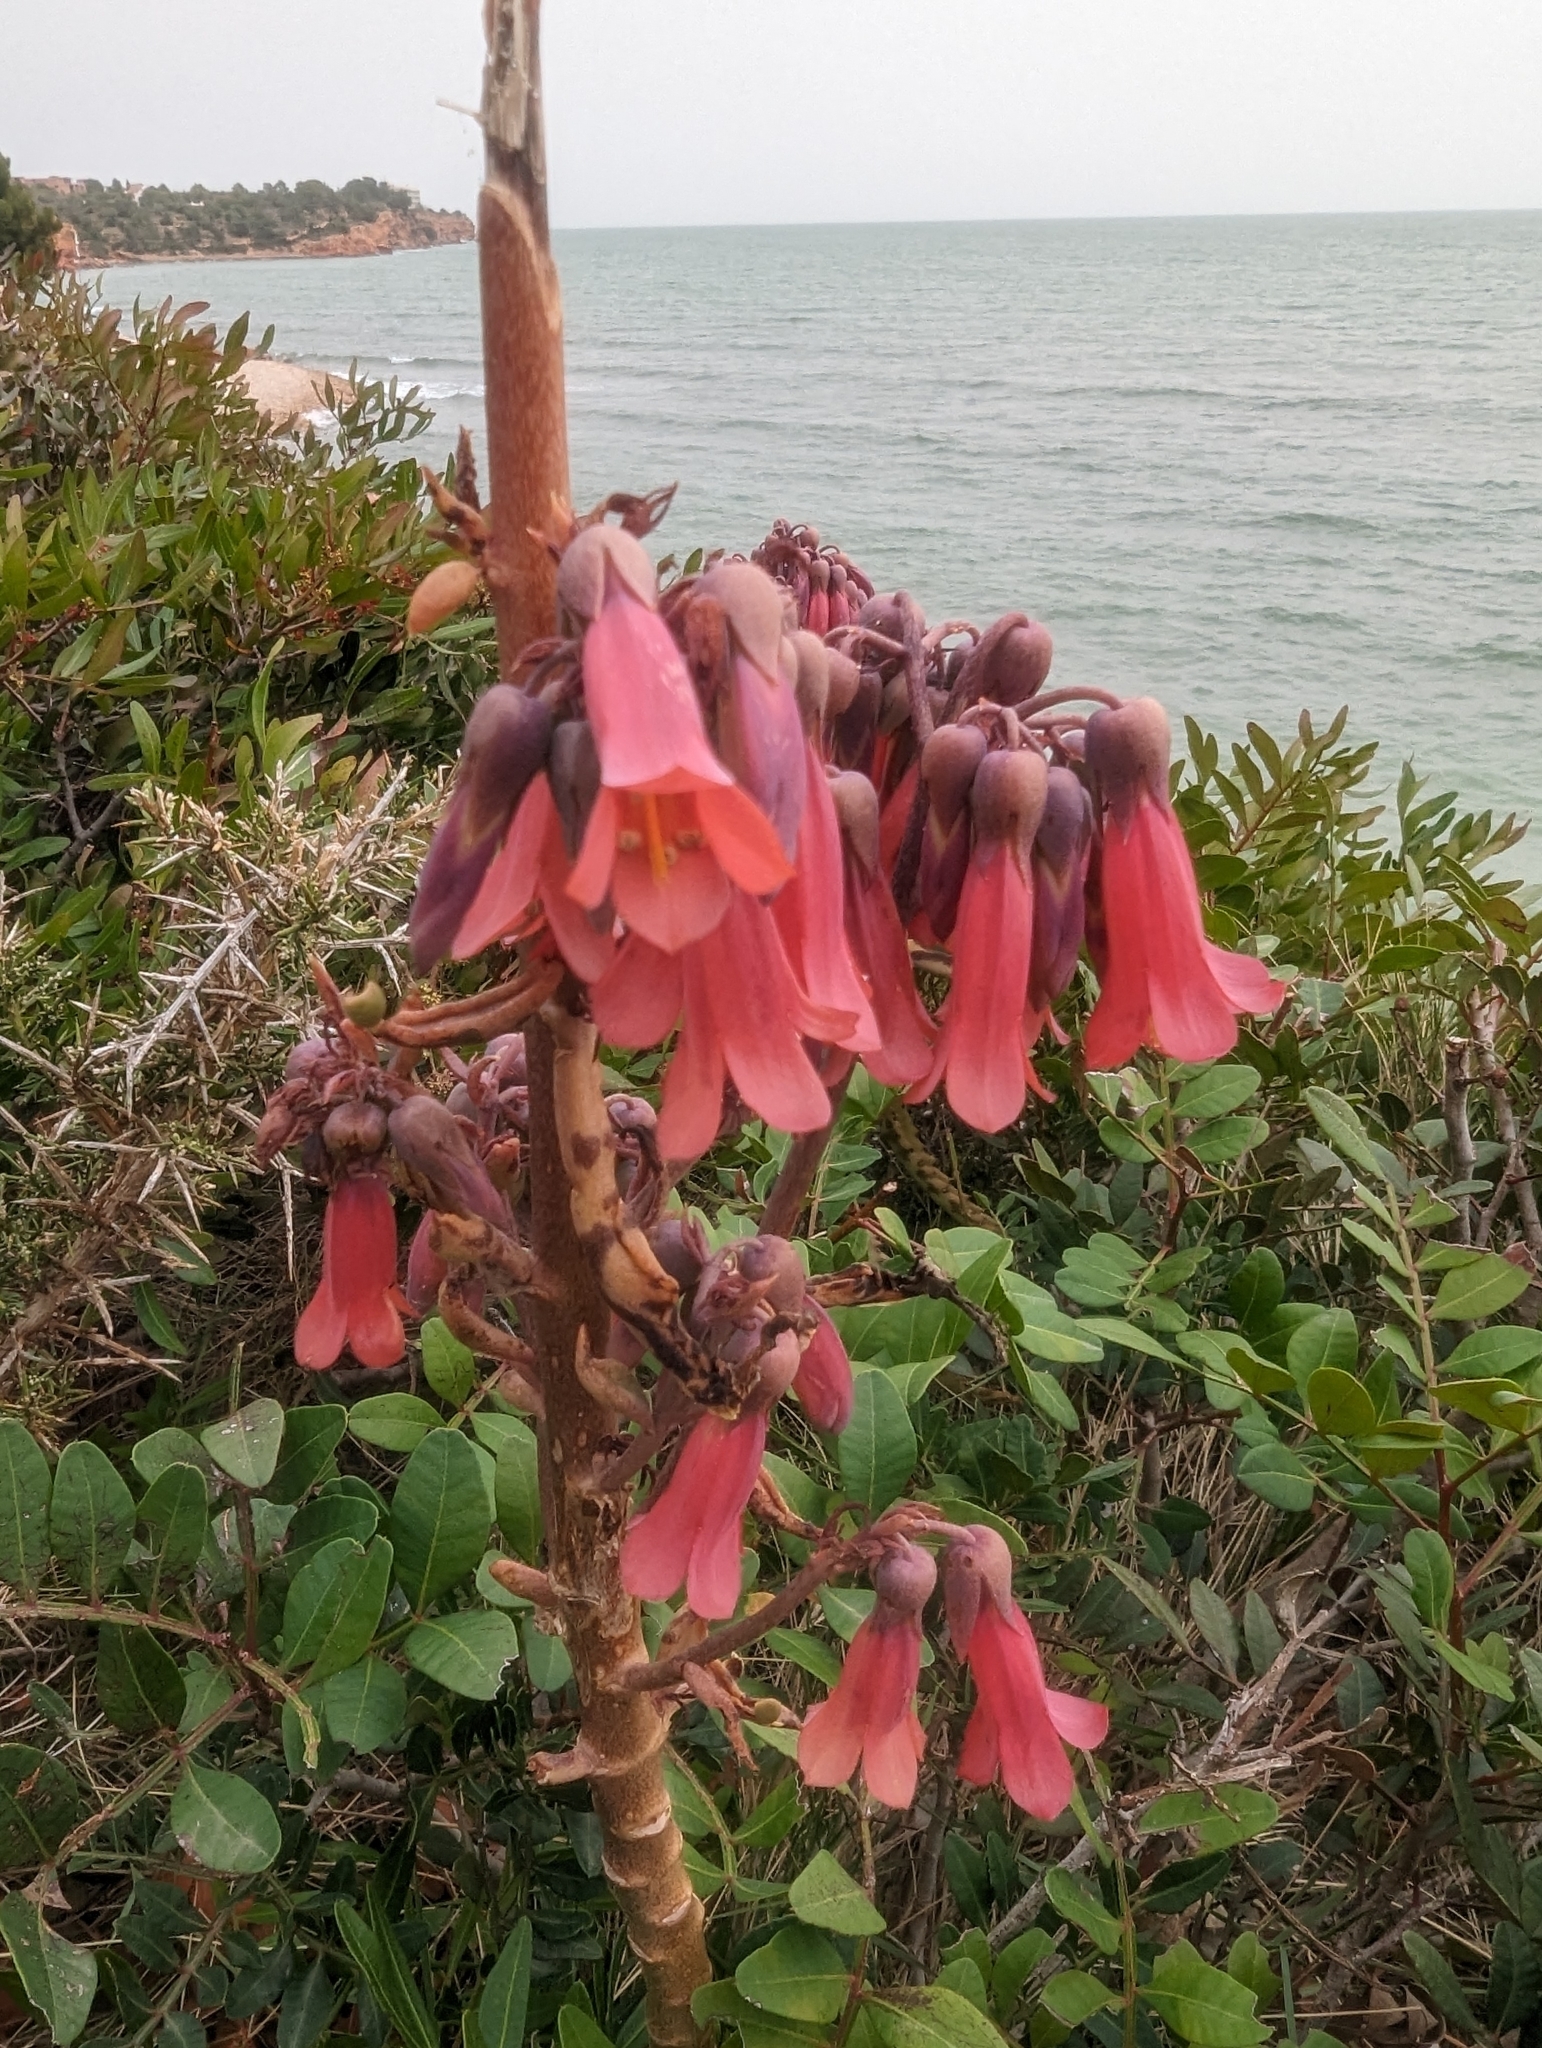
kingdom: Plantae
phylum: Tracheophyta
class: Magnoliopsida
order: Saxifragales
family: Crassulaceae
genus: Kalanchoe
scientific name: Kalanchoe houghtonii
